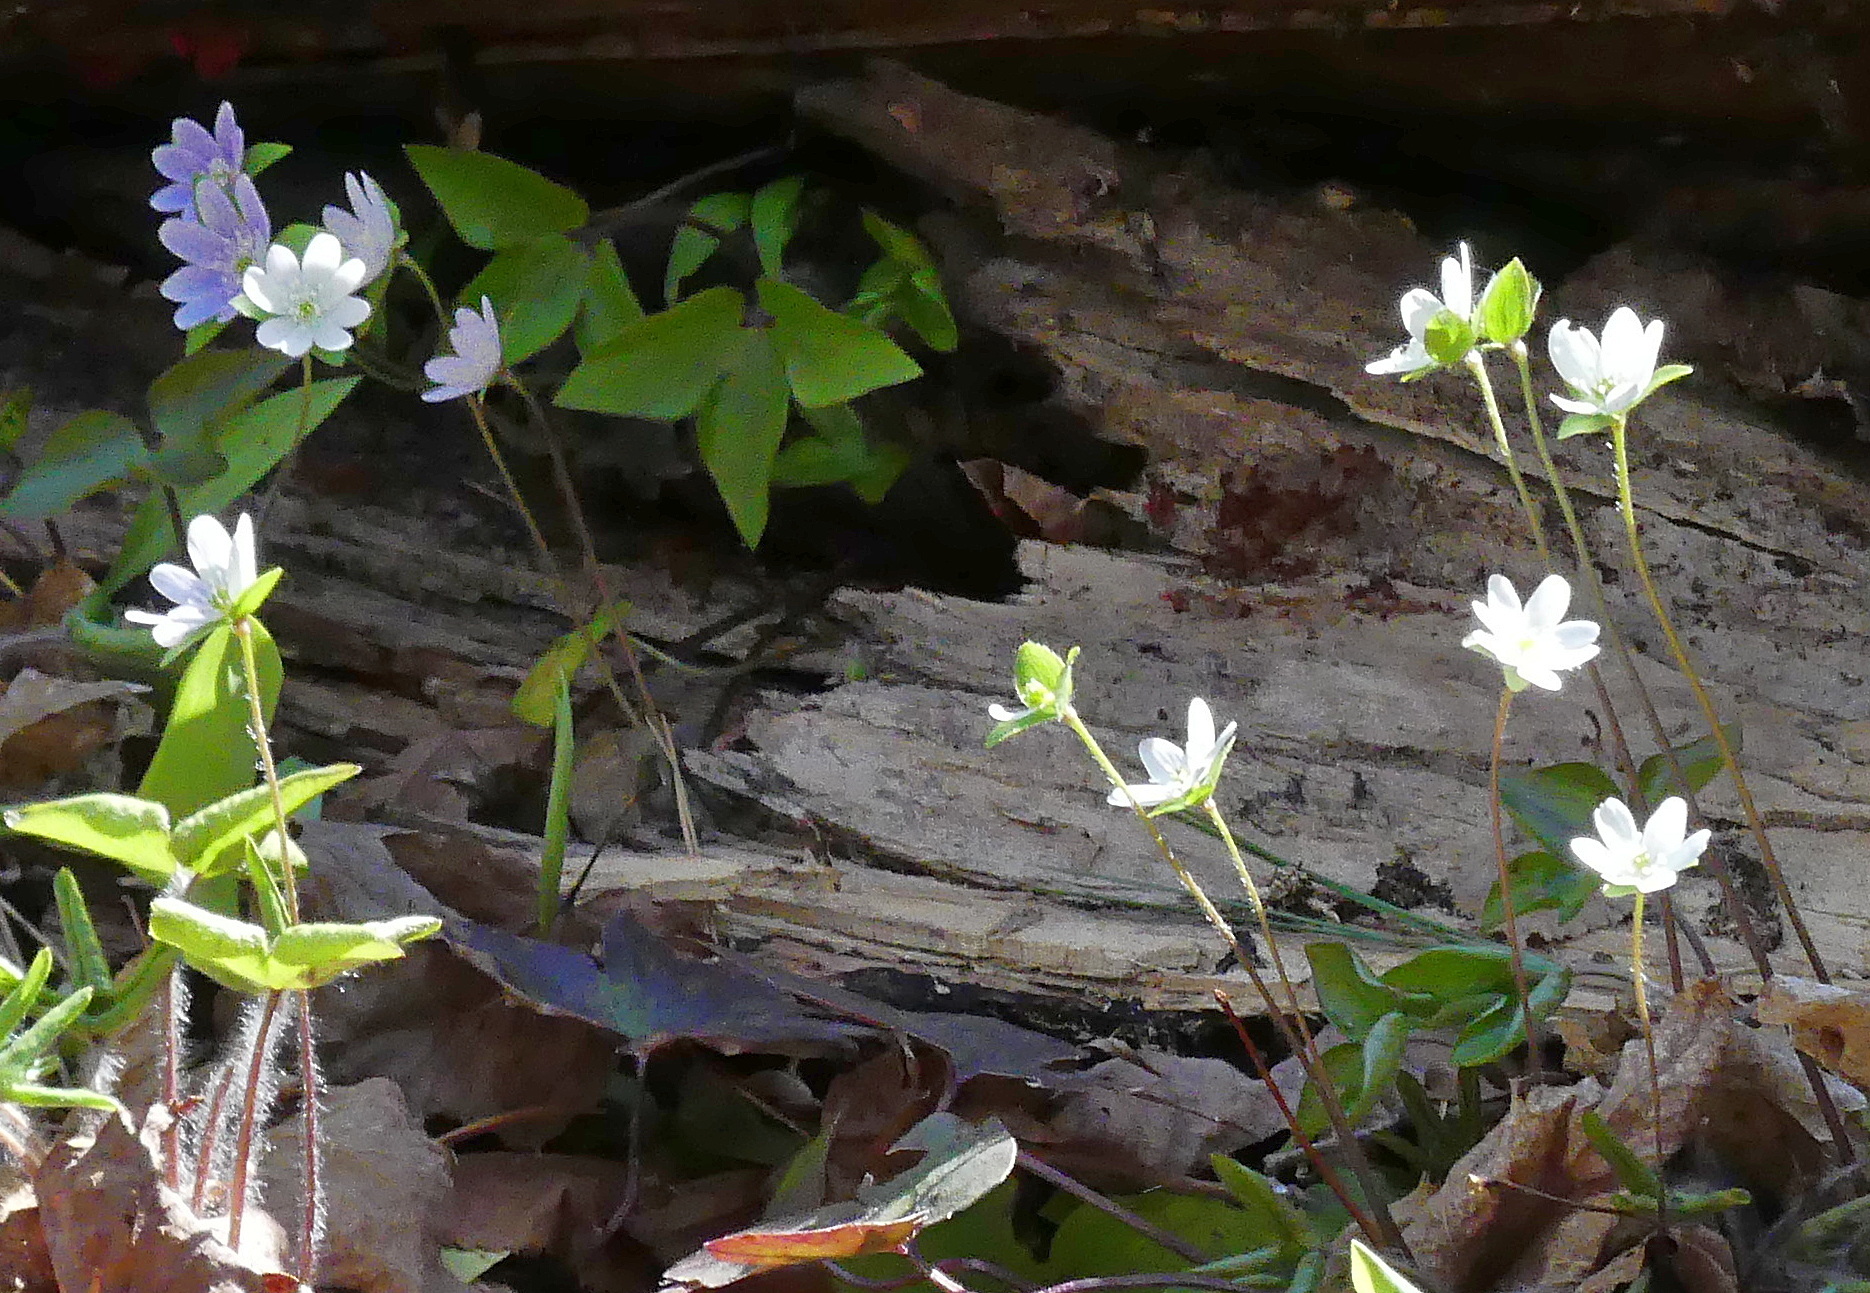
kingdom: Plantae
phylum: Tracheophyta
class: Magnoliopsida
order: Ranunculales
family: Ranunculaceae
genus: Hepatica
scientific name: Hepatica acutiloba
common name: Sharp-lobed hepatica
